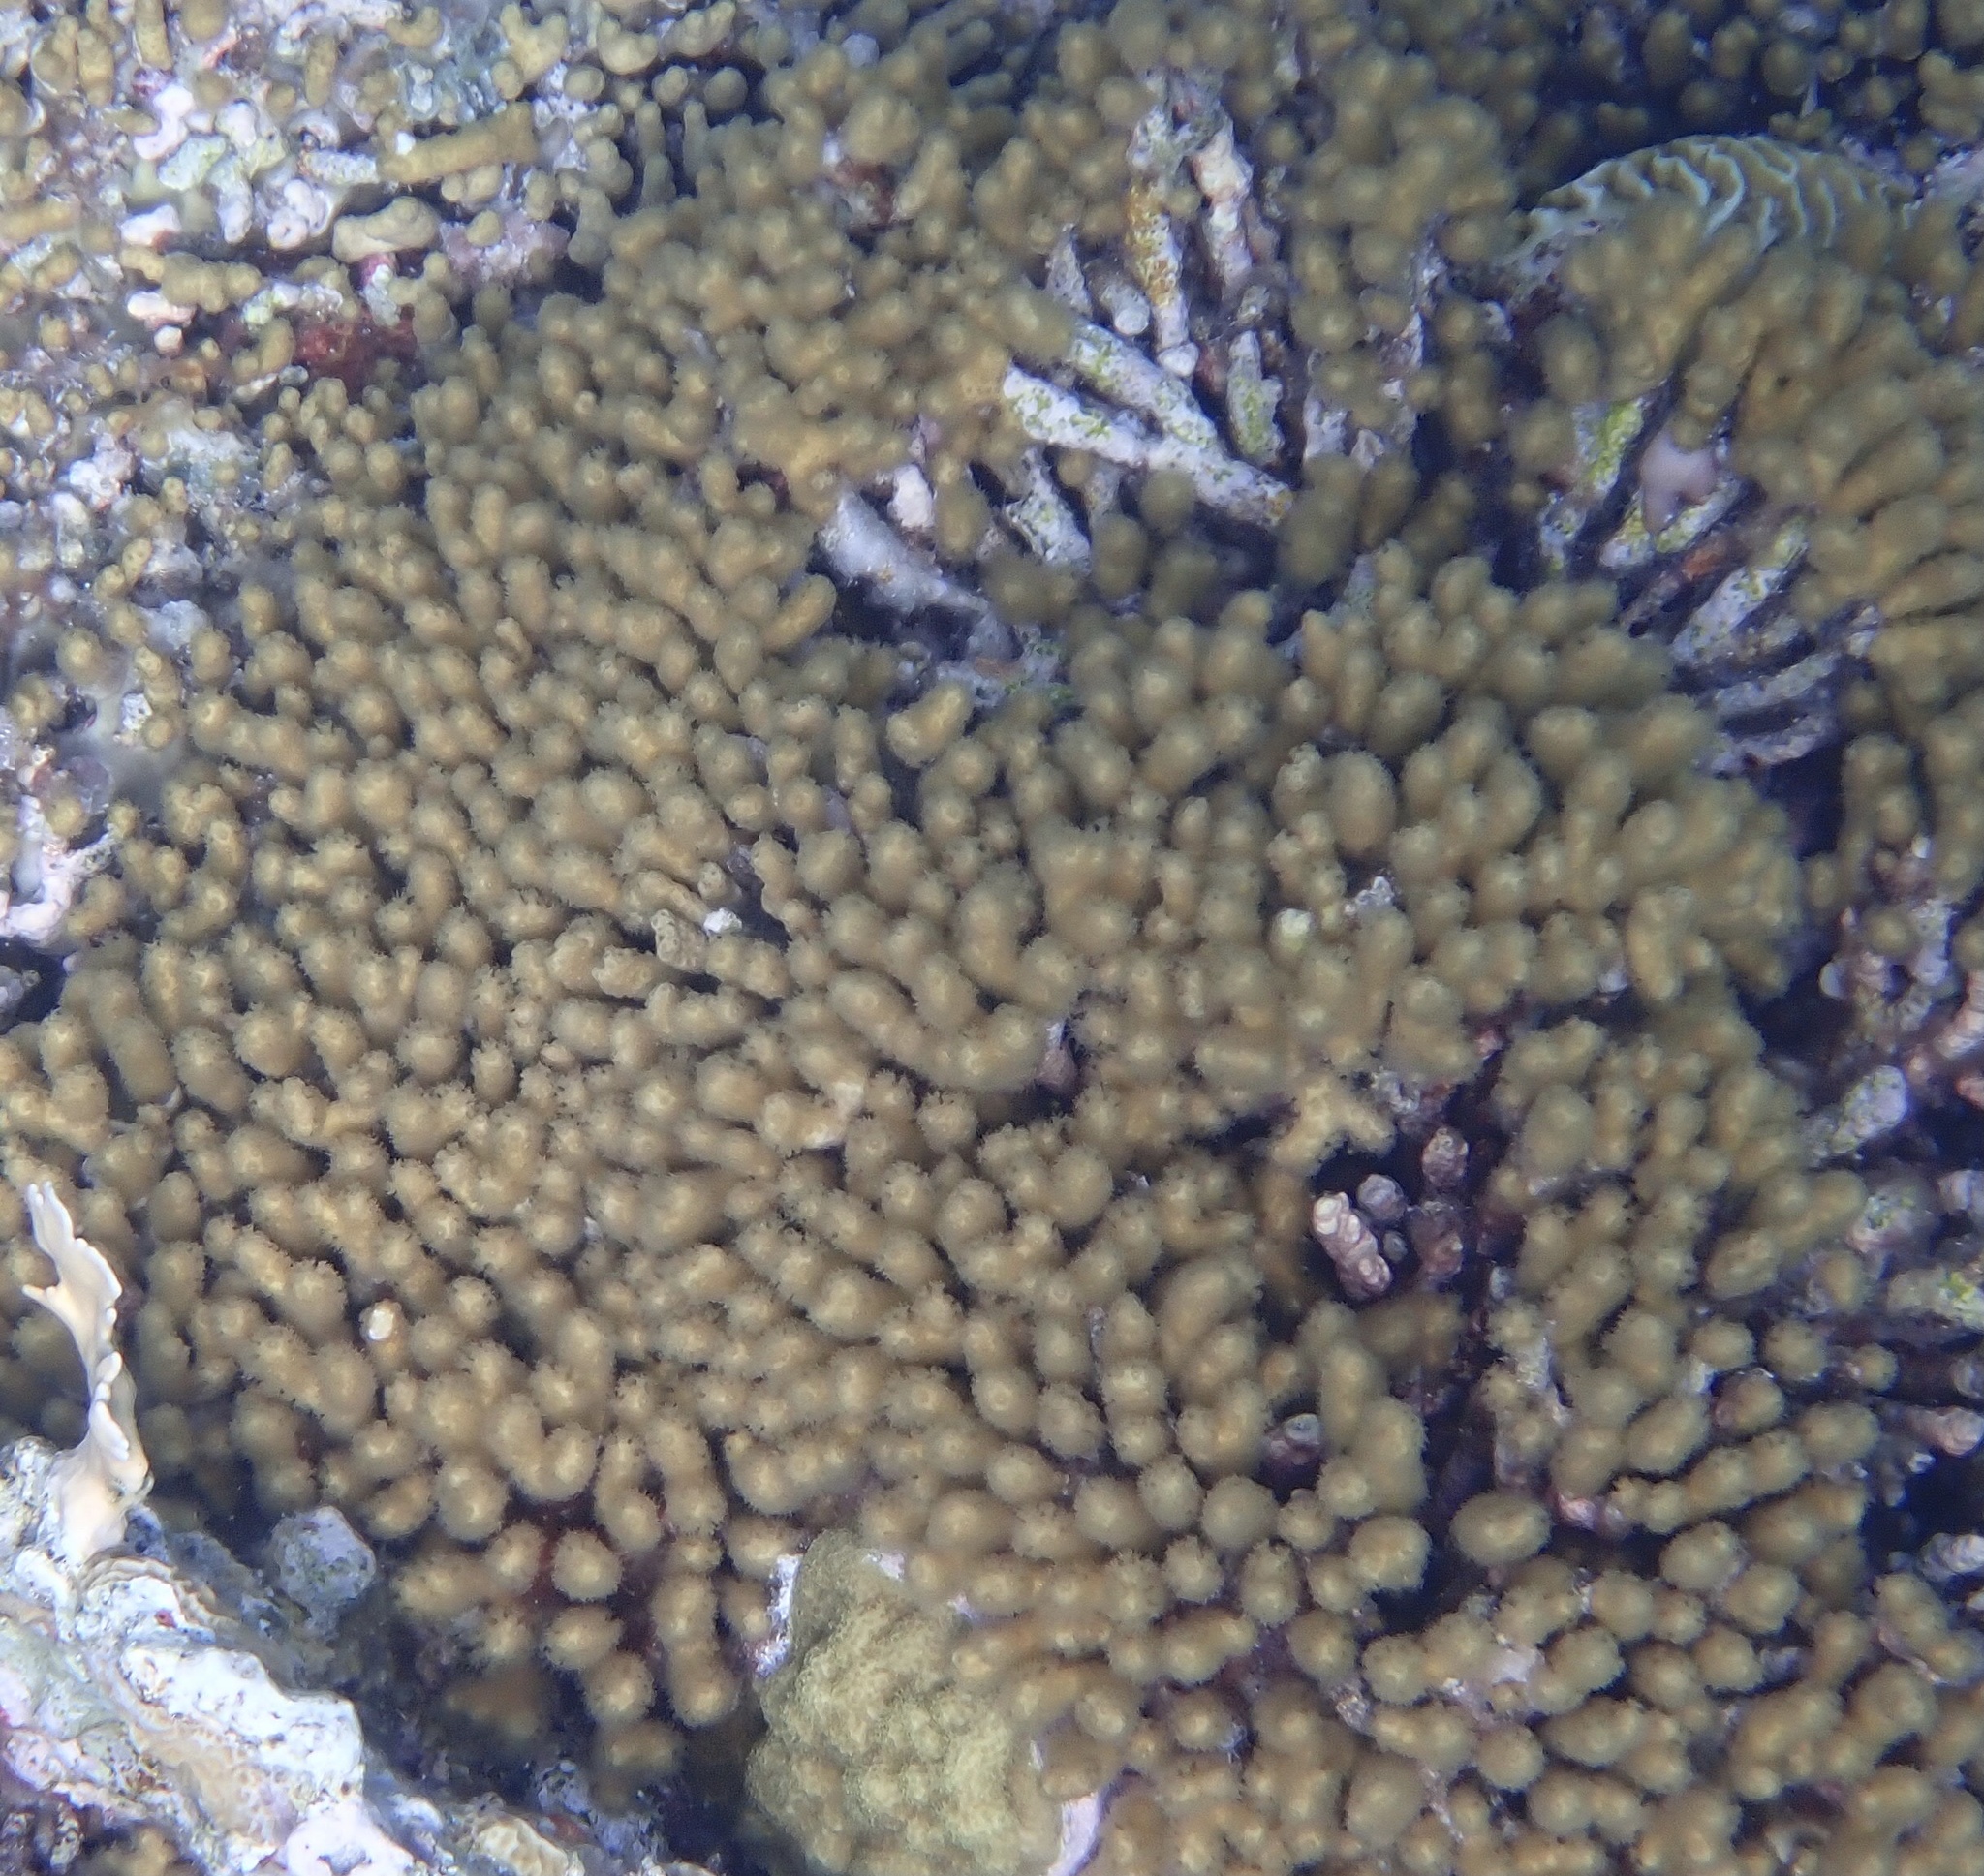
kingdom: Animalia
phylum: Cnidaria
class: Anthozoa
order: Scleractinia
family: Pocilloporidae
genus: Madracis
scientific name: Madracis auretenra
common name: Yellow pencil coral
